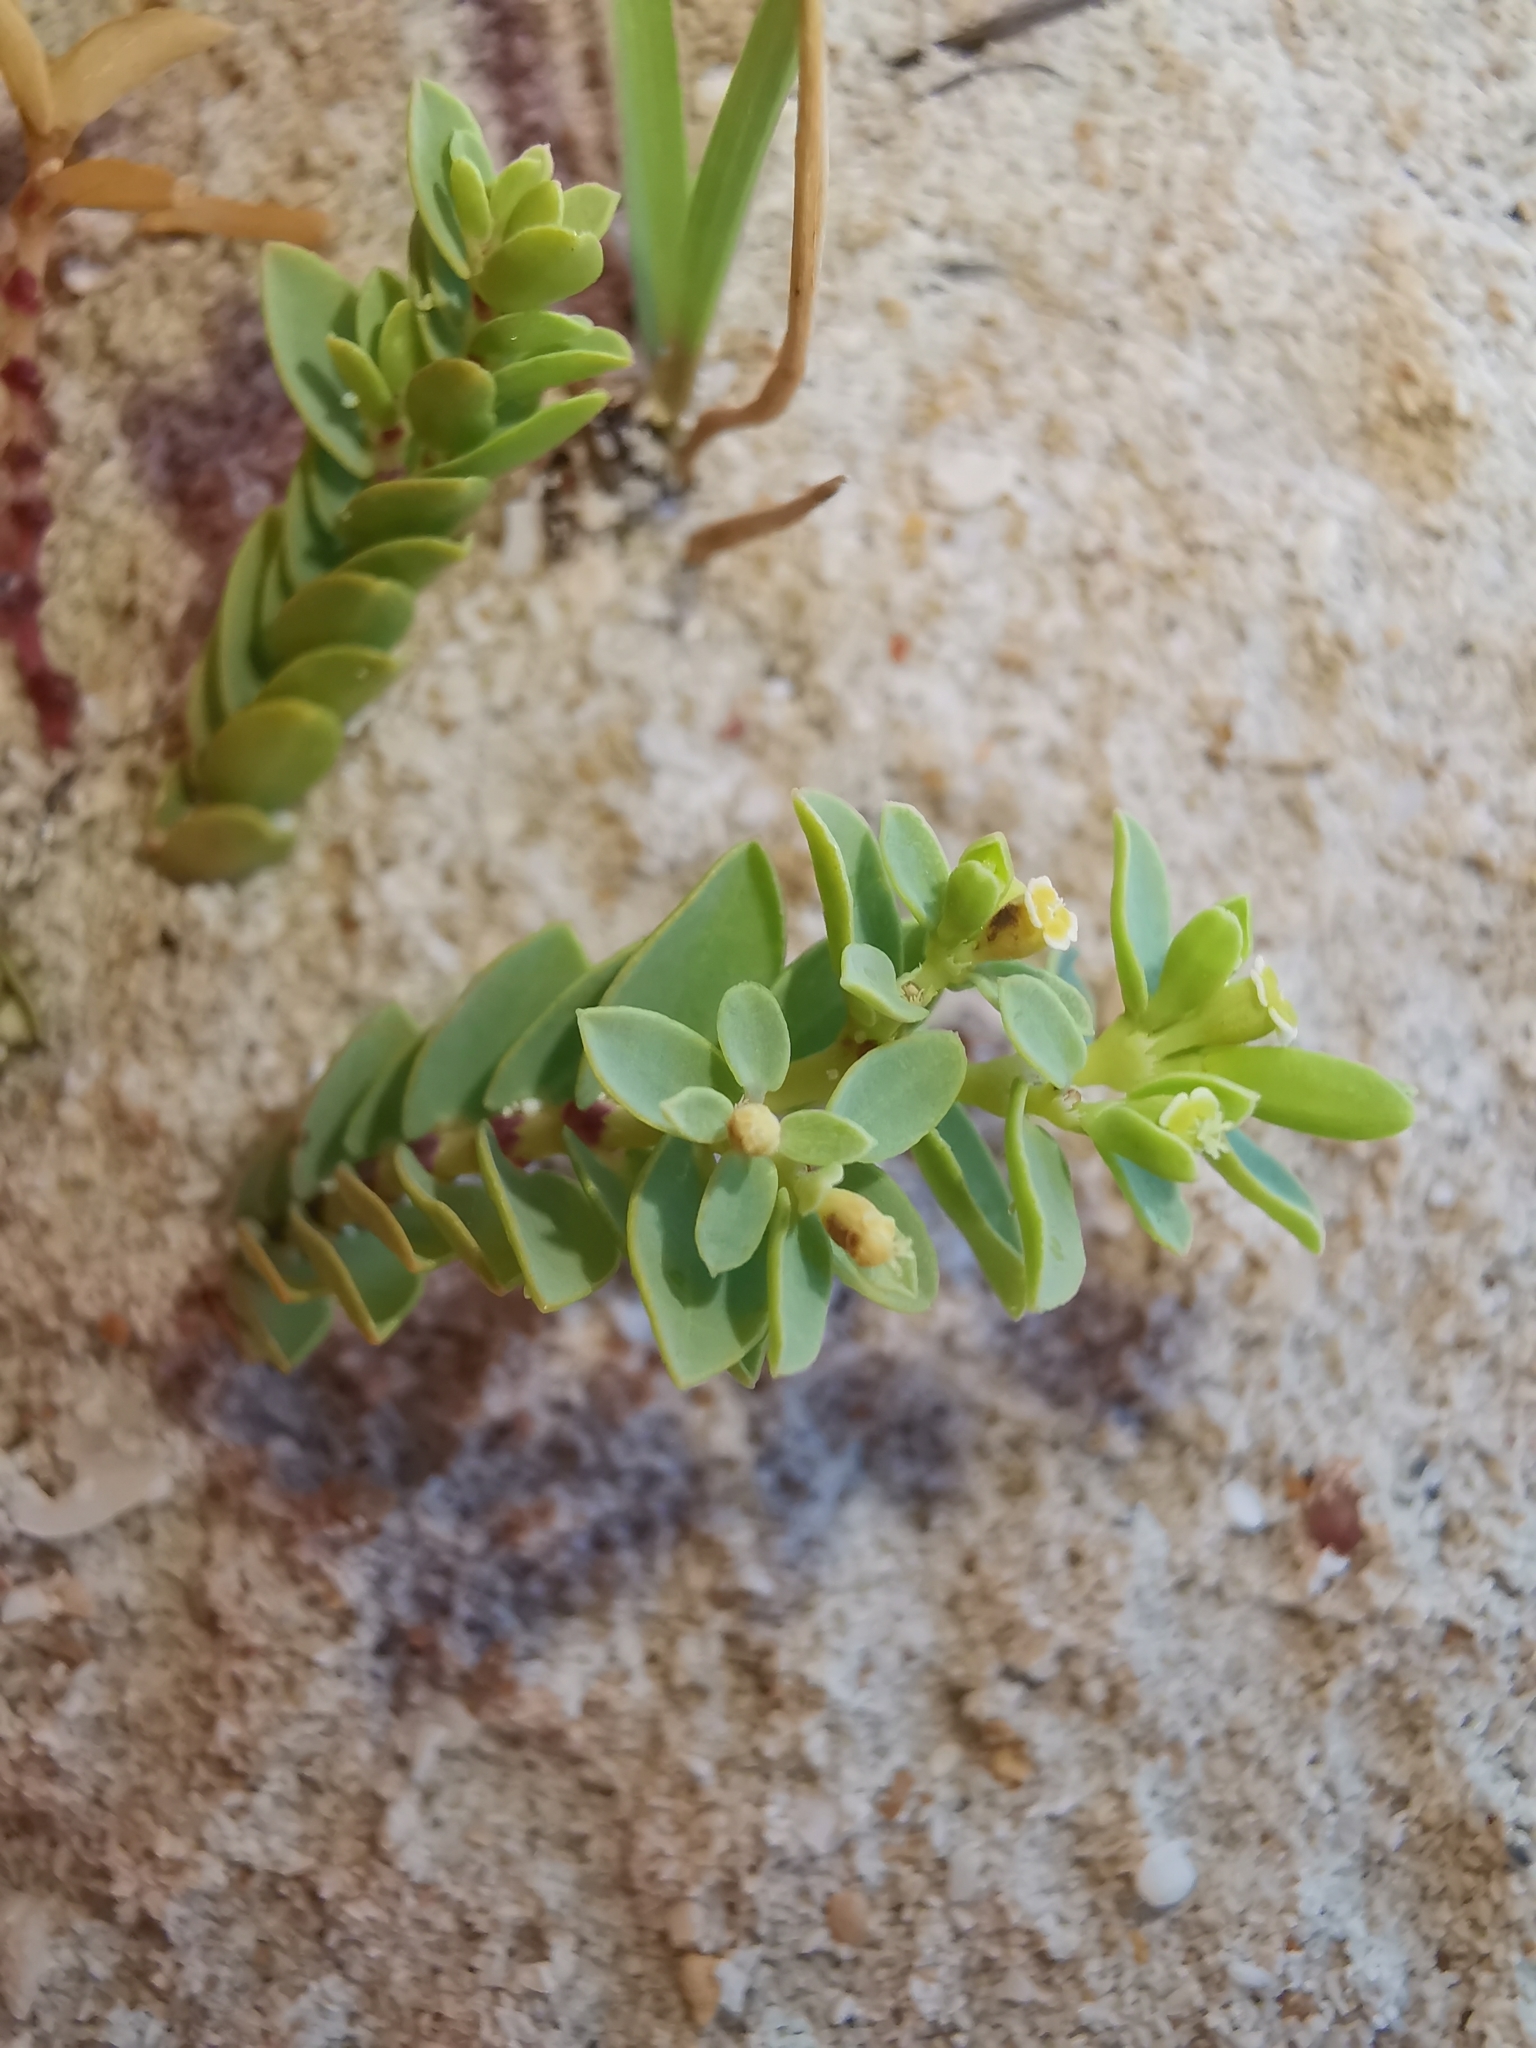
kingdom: Plantae
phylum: Tracheophyta
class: Magnoliopsida
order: Malpighiales
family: Euphorbiaceae
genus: Euphorbia
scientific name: Euphorbia mesembryanthemifolia
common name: Coastal beach sandmat
